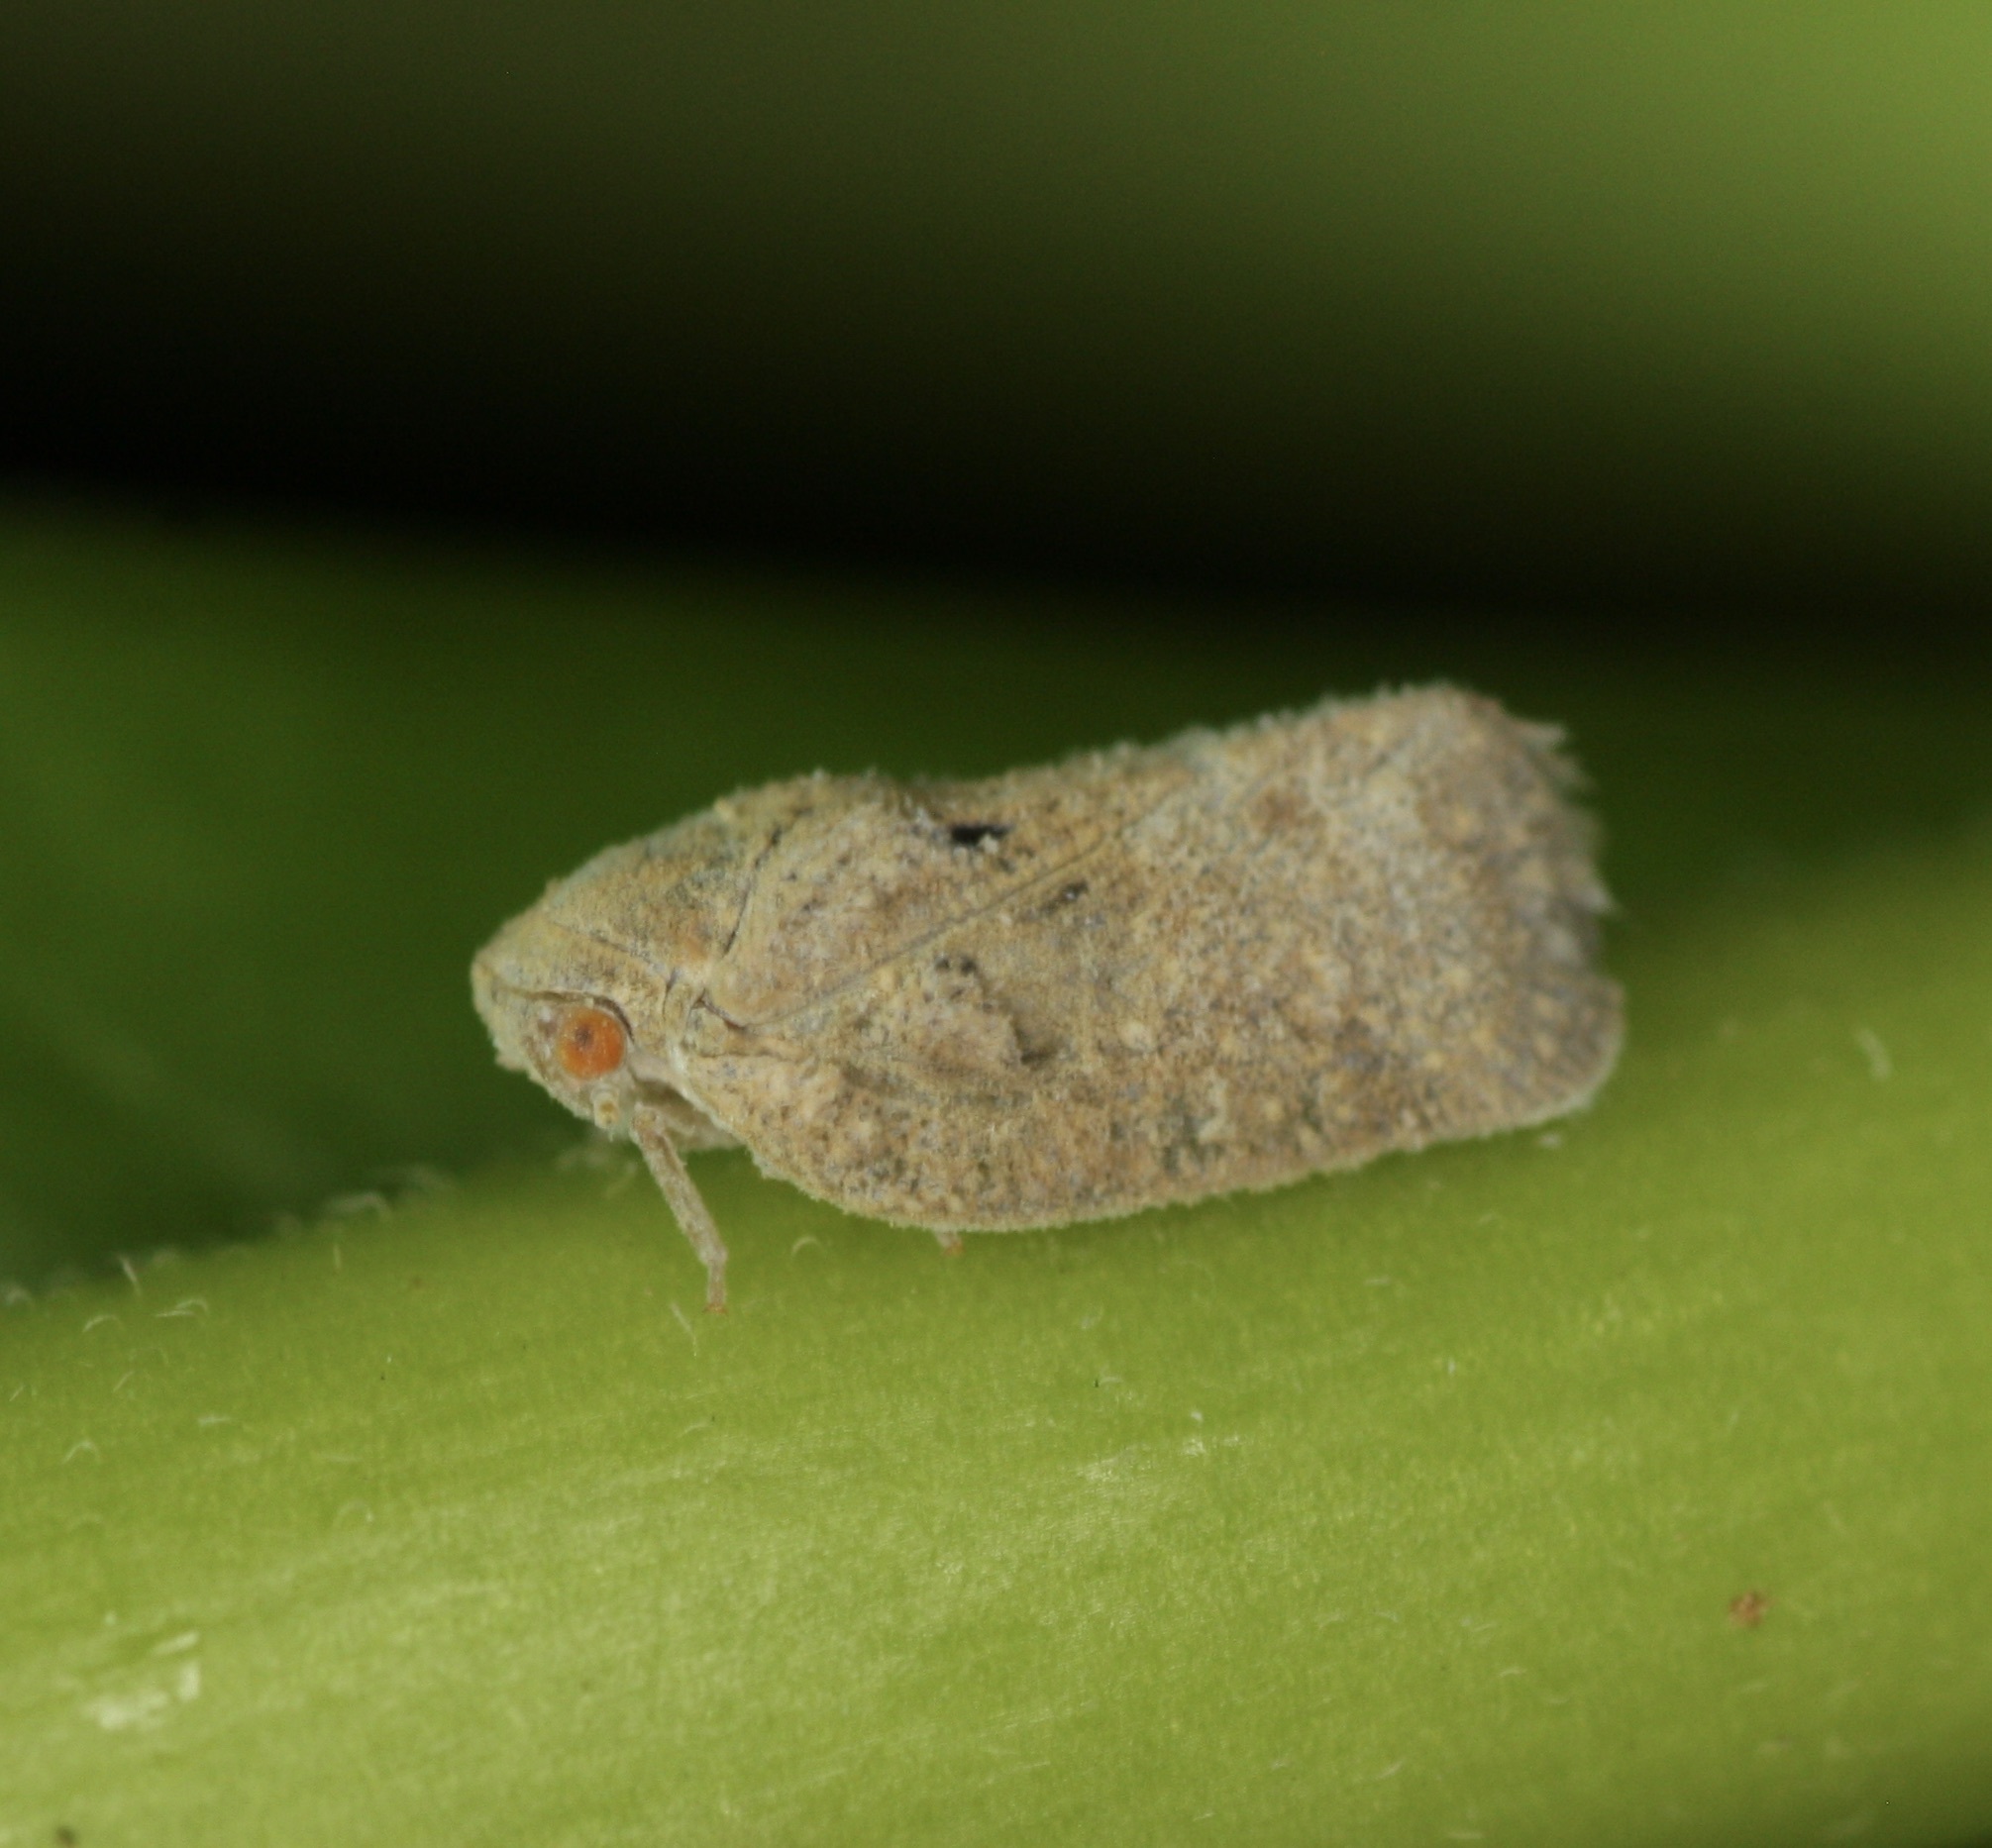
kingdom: Animalia
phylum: Arthropoda
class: Insecta
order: Hemiptera
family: Flatidae
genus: Melormenis
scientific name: Melormenis basalis
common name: Puerto rican planthopper
